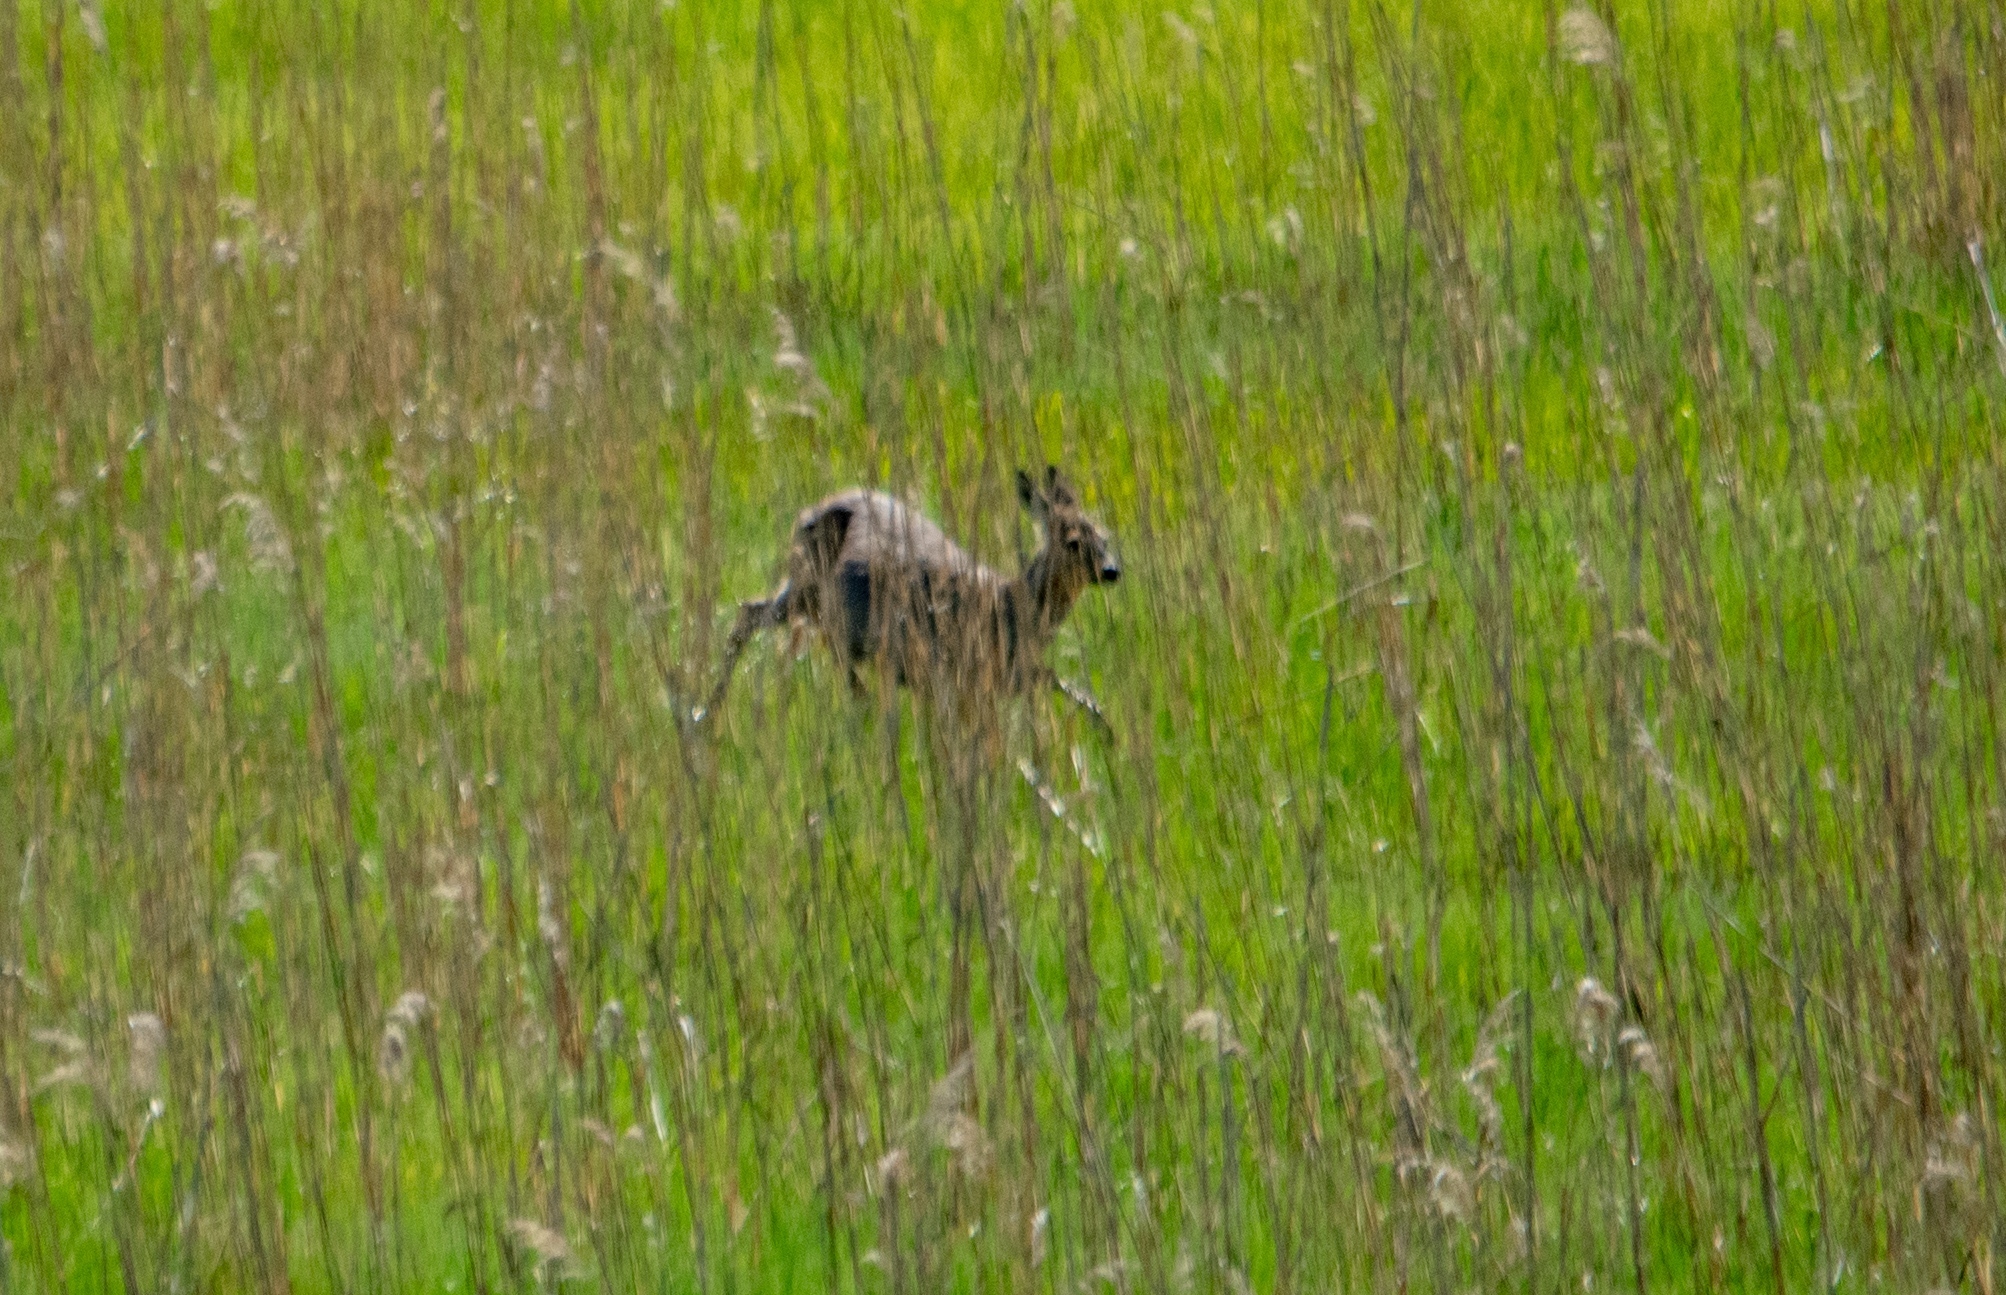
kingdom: Animalia
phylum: Chordata
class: Mammalia
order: Artiodactyla
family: Cervidae
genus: Capreolus
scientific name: Capreolus capreolus
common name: Western roe deer
